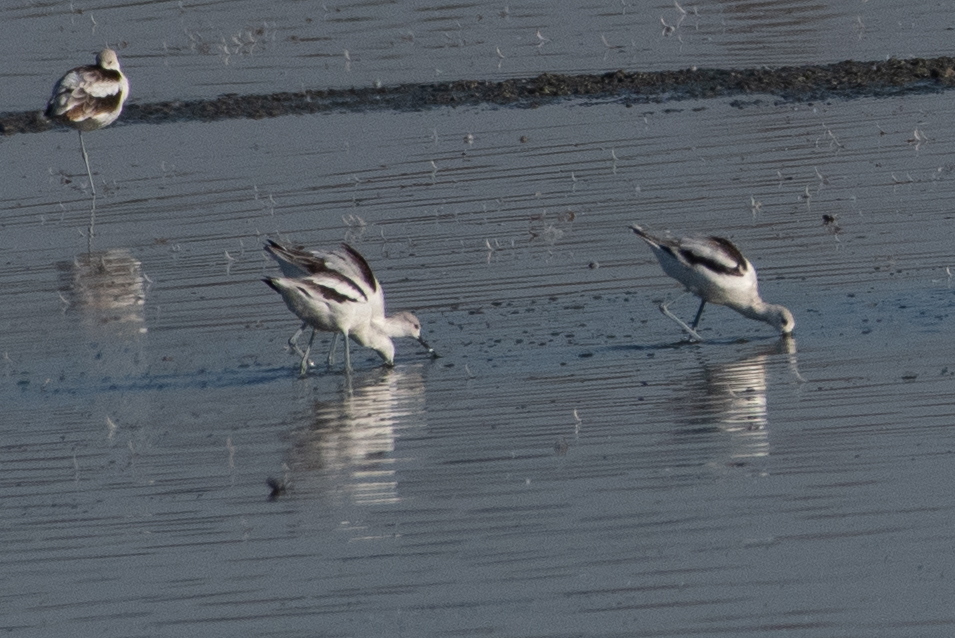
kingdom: Animalia
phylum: Chordata
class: Aves
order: Charadriiformes
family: Recurvirostridae
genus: Recurvirostra
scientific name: Recurvirostra americana
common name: American avocet
